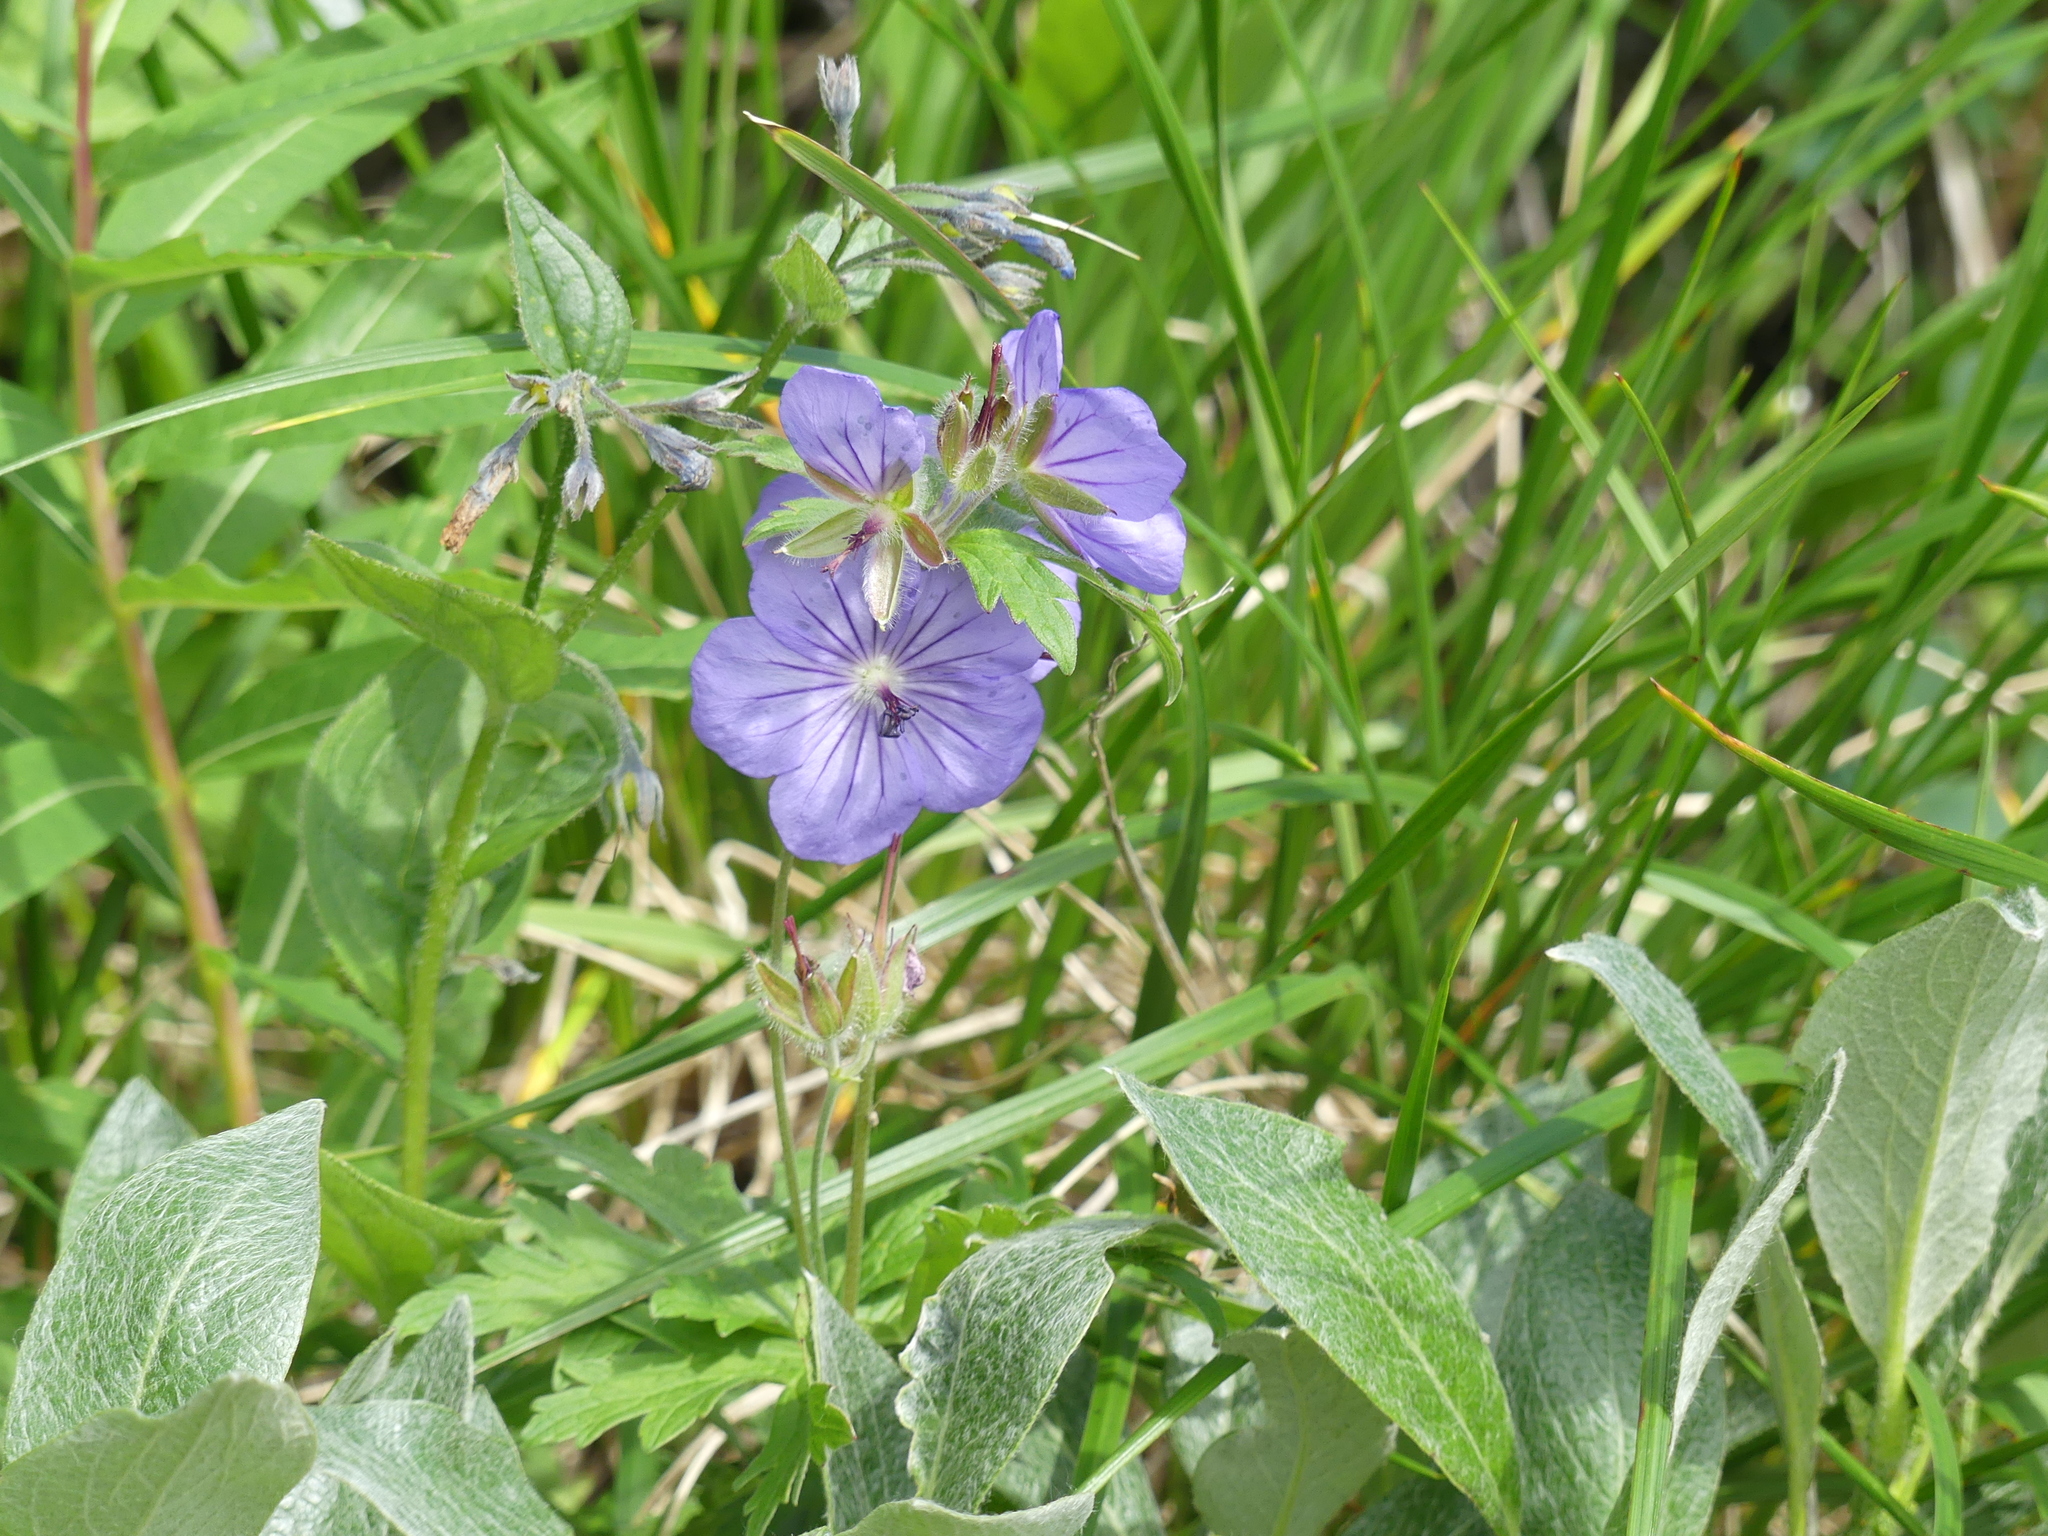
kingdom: Plantae
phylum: Tracheophyta
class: Magnoliopsida
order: Geraniales
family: Geraniaceae
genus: Geranium
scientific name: Geranium erianthum
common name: Northern crane's-bill
